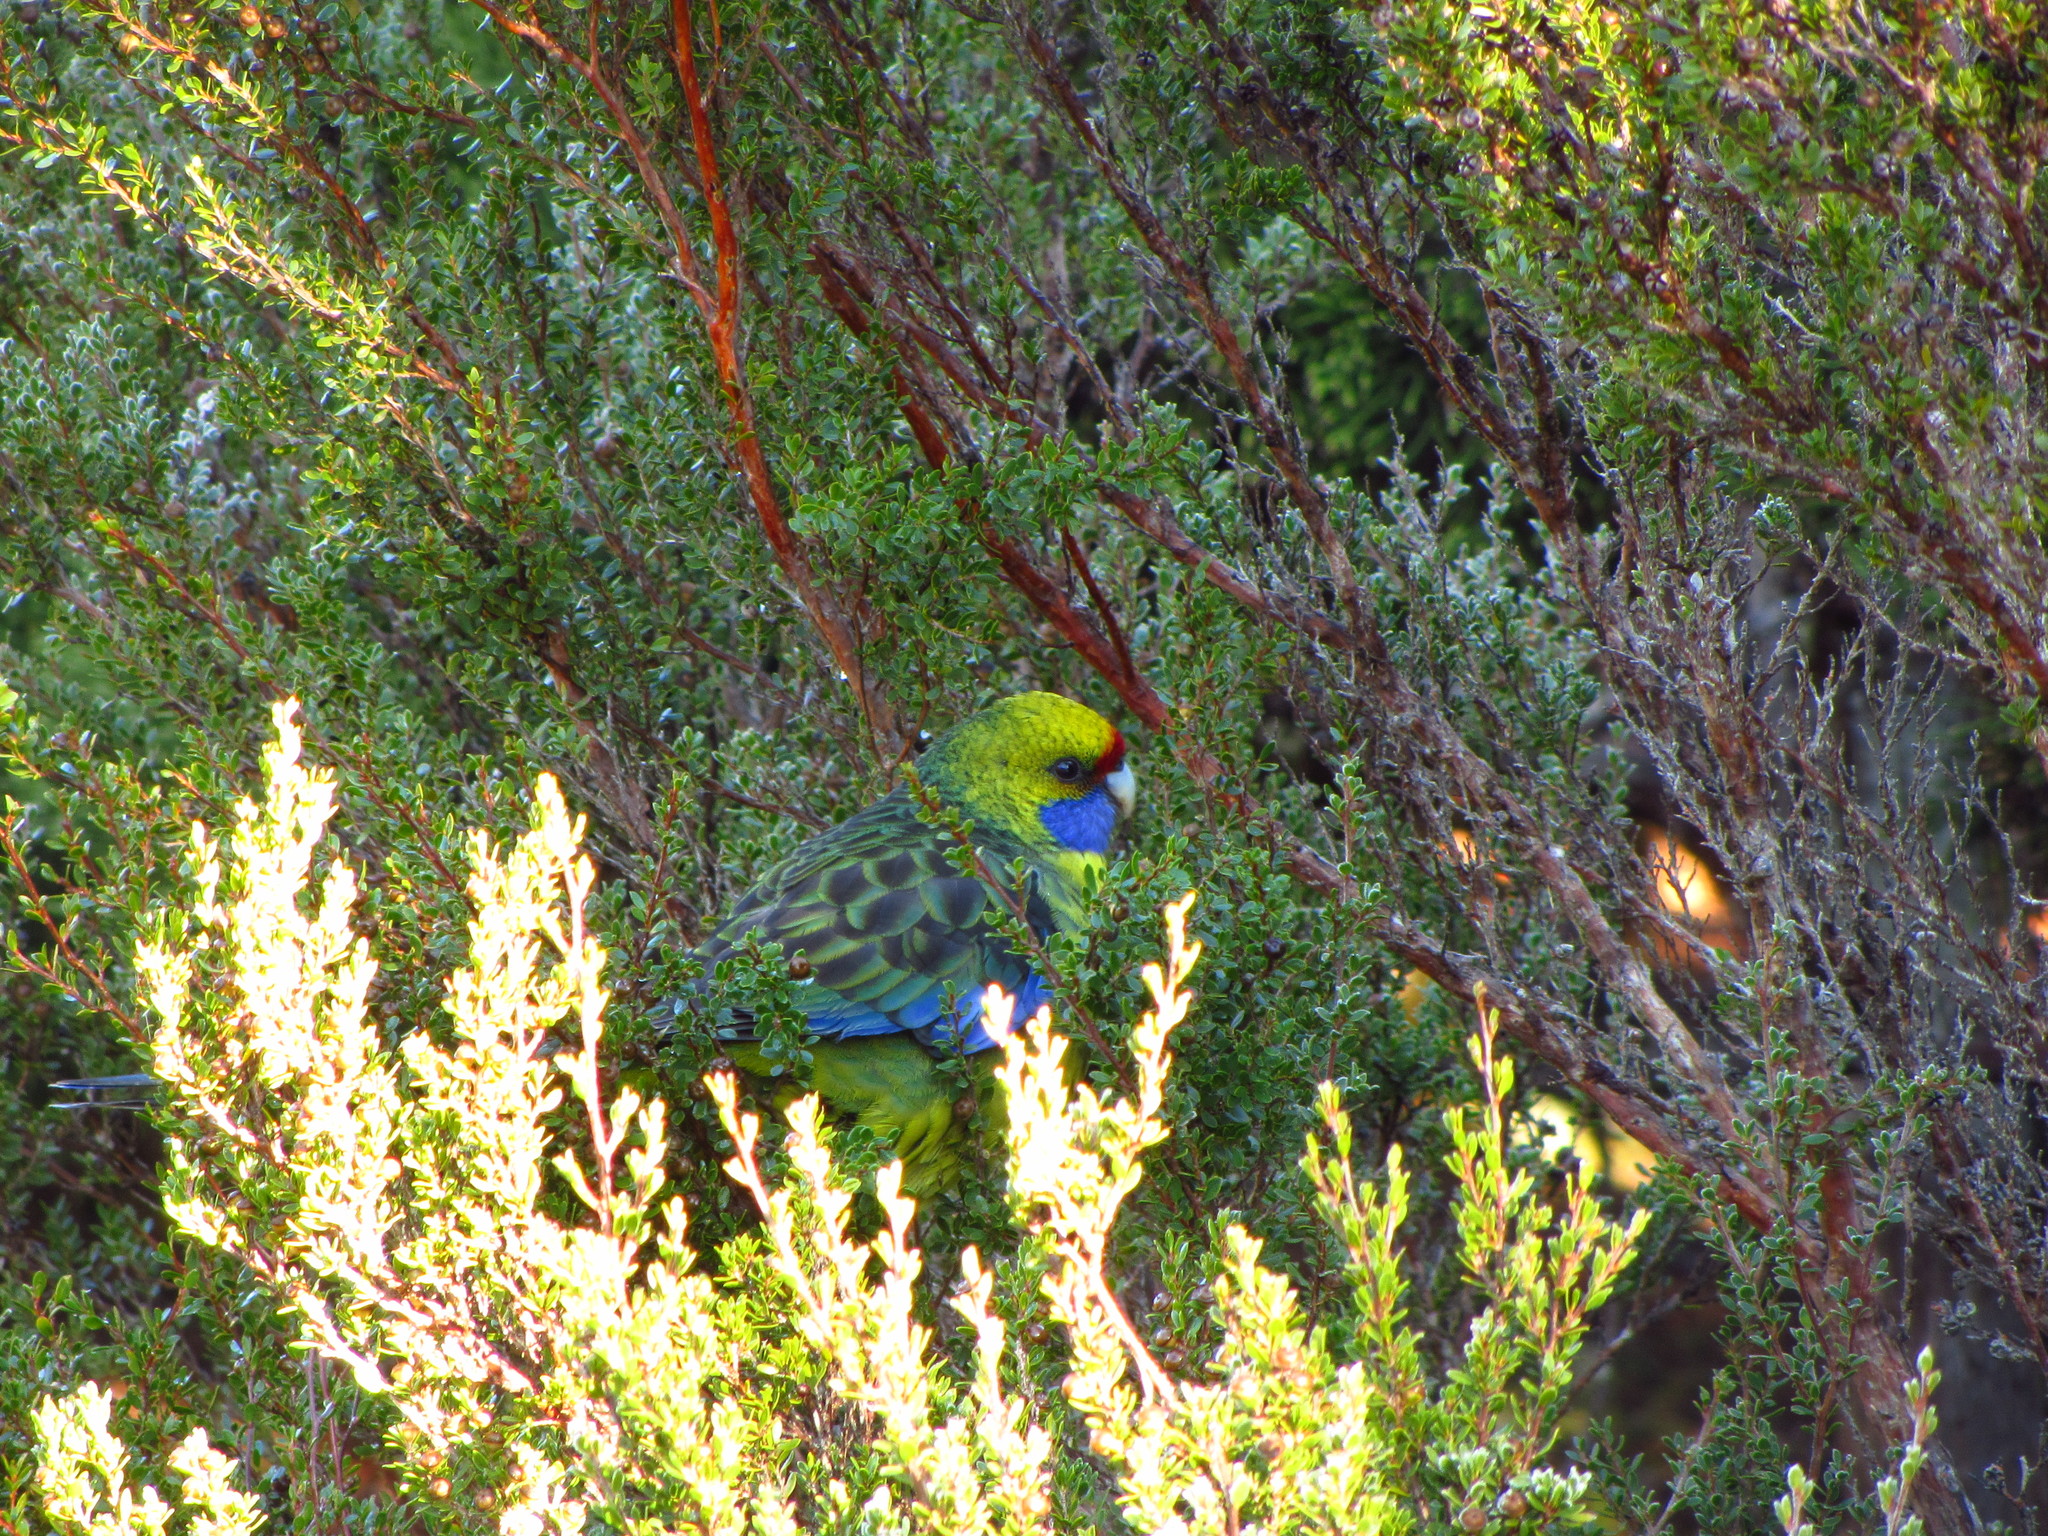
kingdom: Animalia
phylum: Chordata
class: Aves
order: Psittaciformes
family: Psittacidae
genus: Platycercus
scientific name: Platycercus caledonicus
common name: Green rosella
